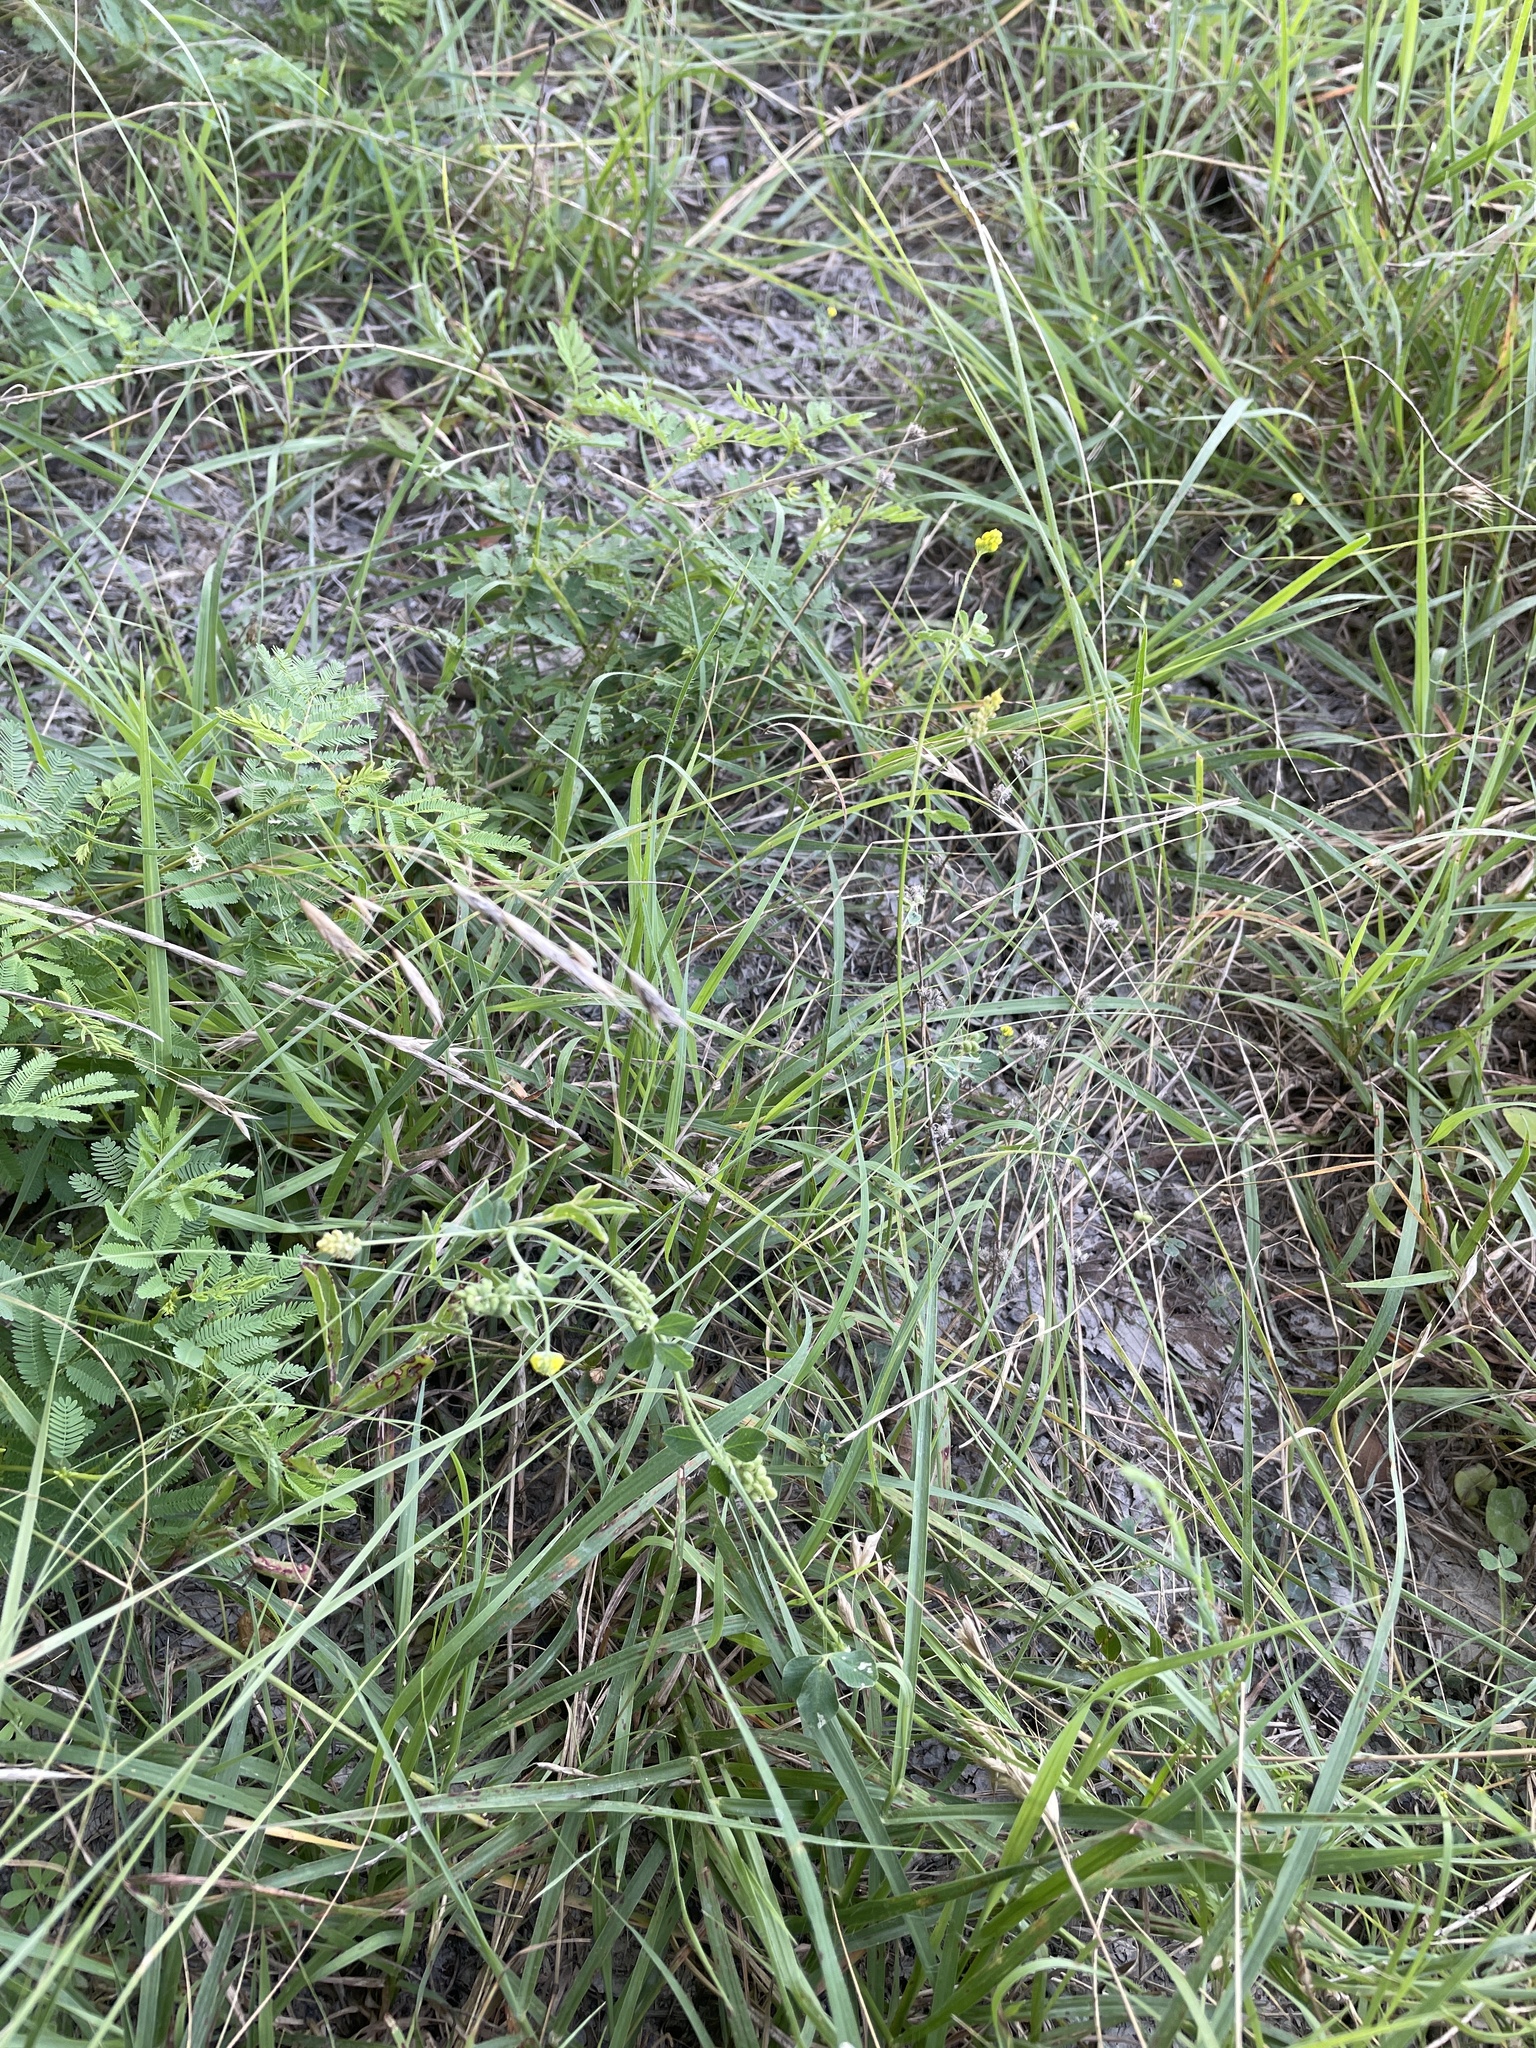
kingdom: Plantae
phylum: Tracheophyta
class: Magnoliopsida
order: Fabales
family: Fabaceae
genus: Medicago
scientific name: Medicago lupulina
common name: Black medick
